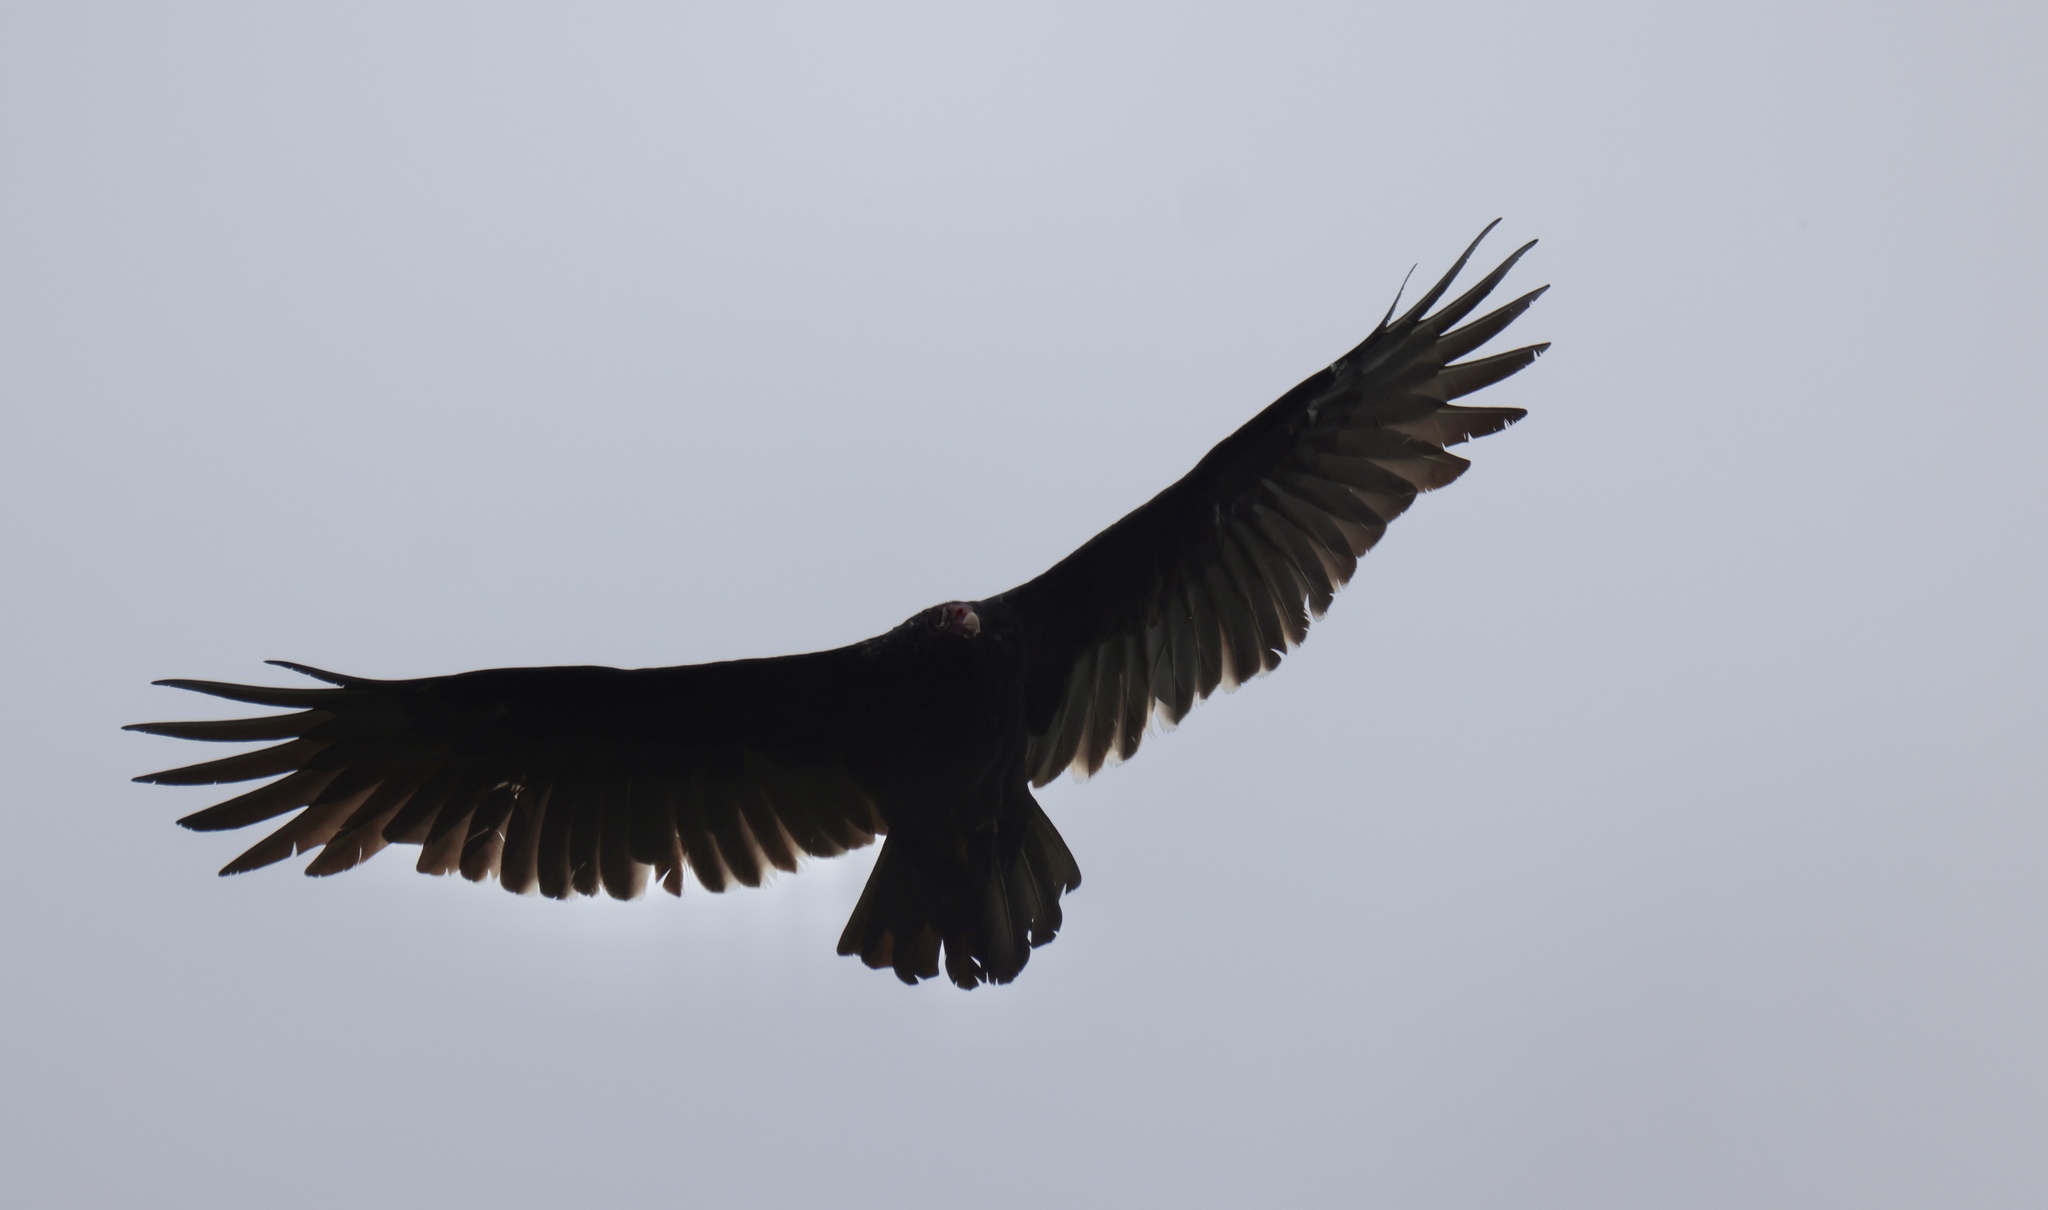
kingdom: Animalia
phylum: Chordata
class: Aves
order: Accipitriformes
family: Cathartidae
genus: Cathartes
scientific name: Cathartes aura
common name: Turkey vulture
